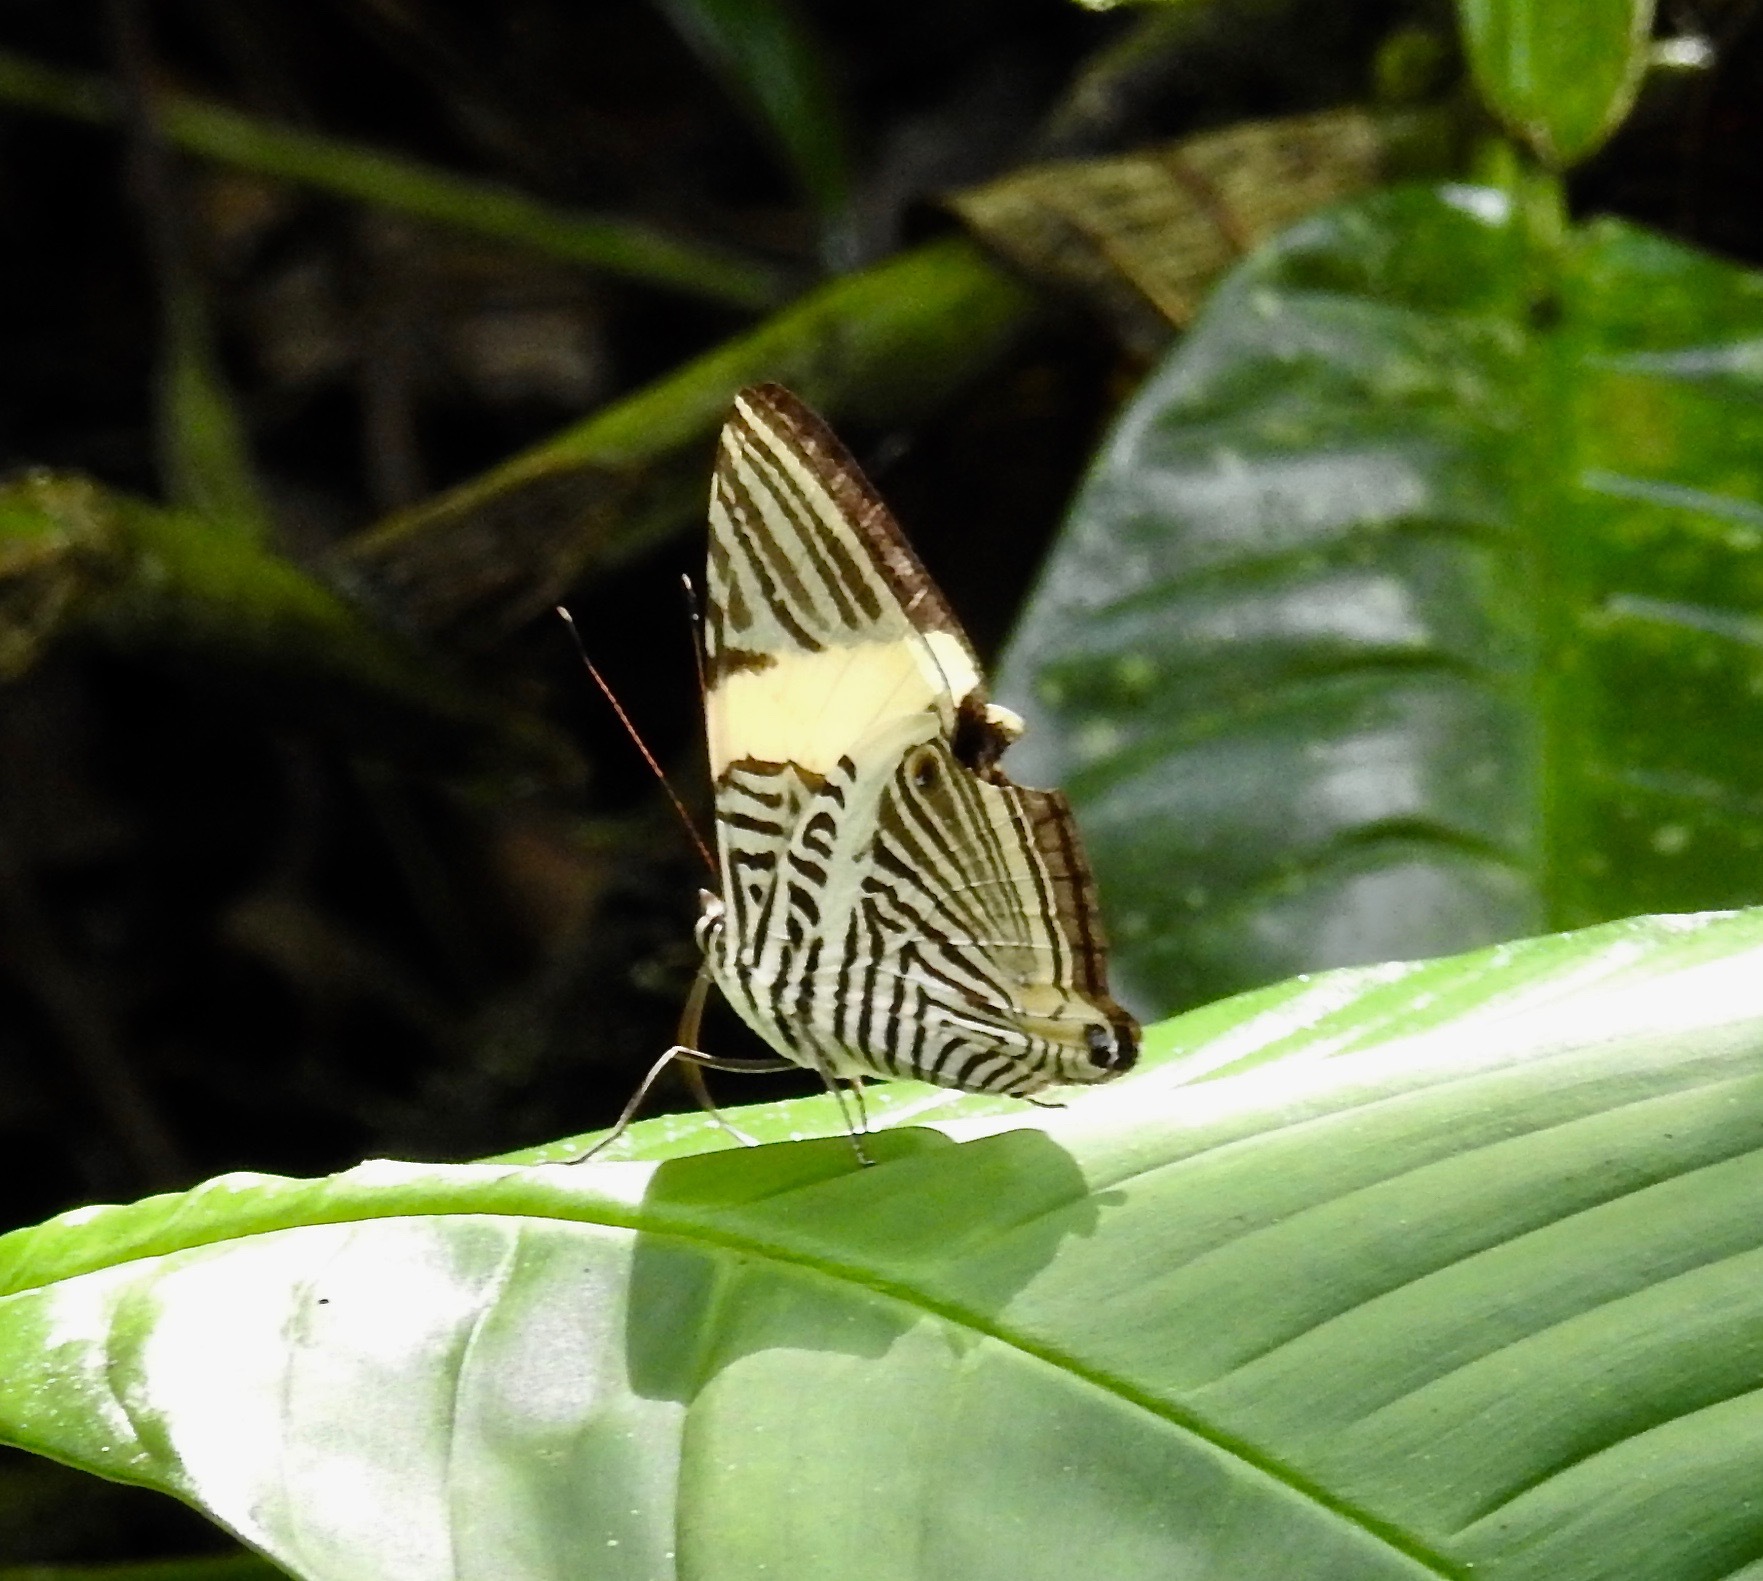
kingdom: Animalia
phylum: Arthropoda
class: Insecta
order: Lepidoptera
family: Nymphalidae
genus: Colobura
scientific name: Colobura annulata
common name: New beauty
